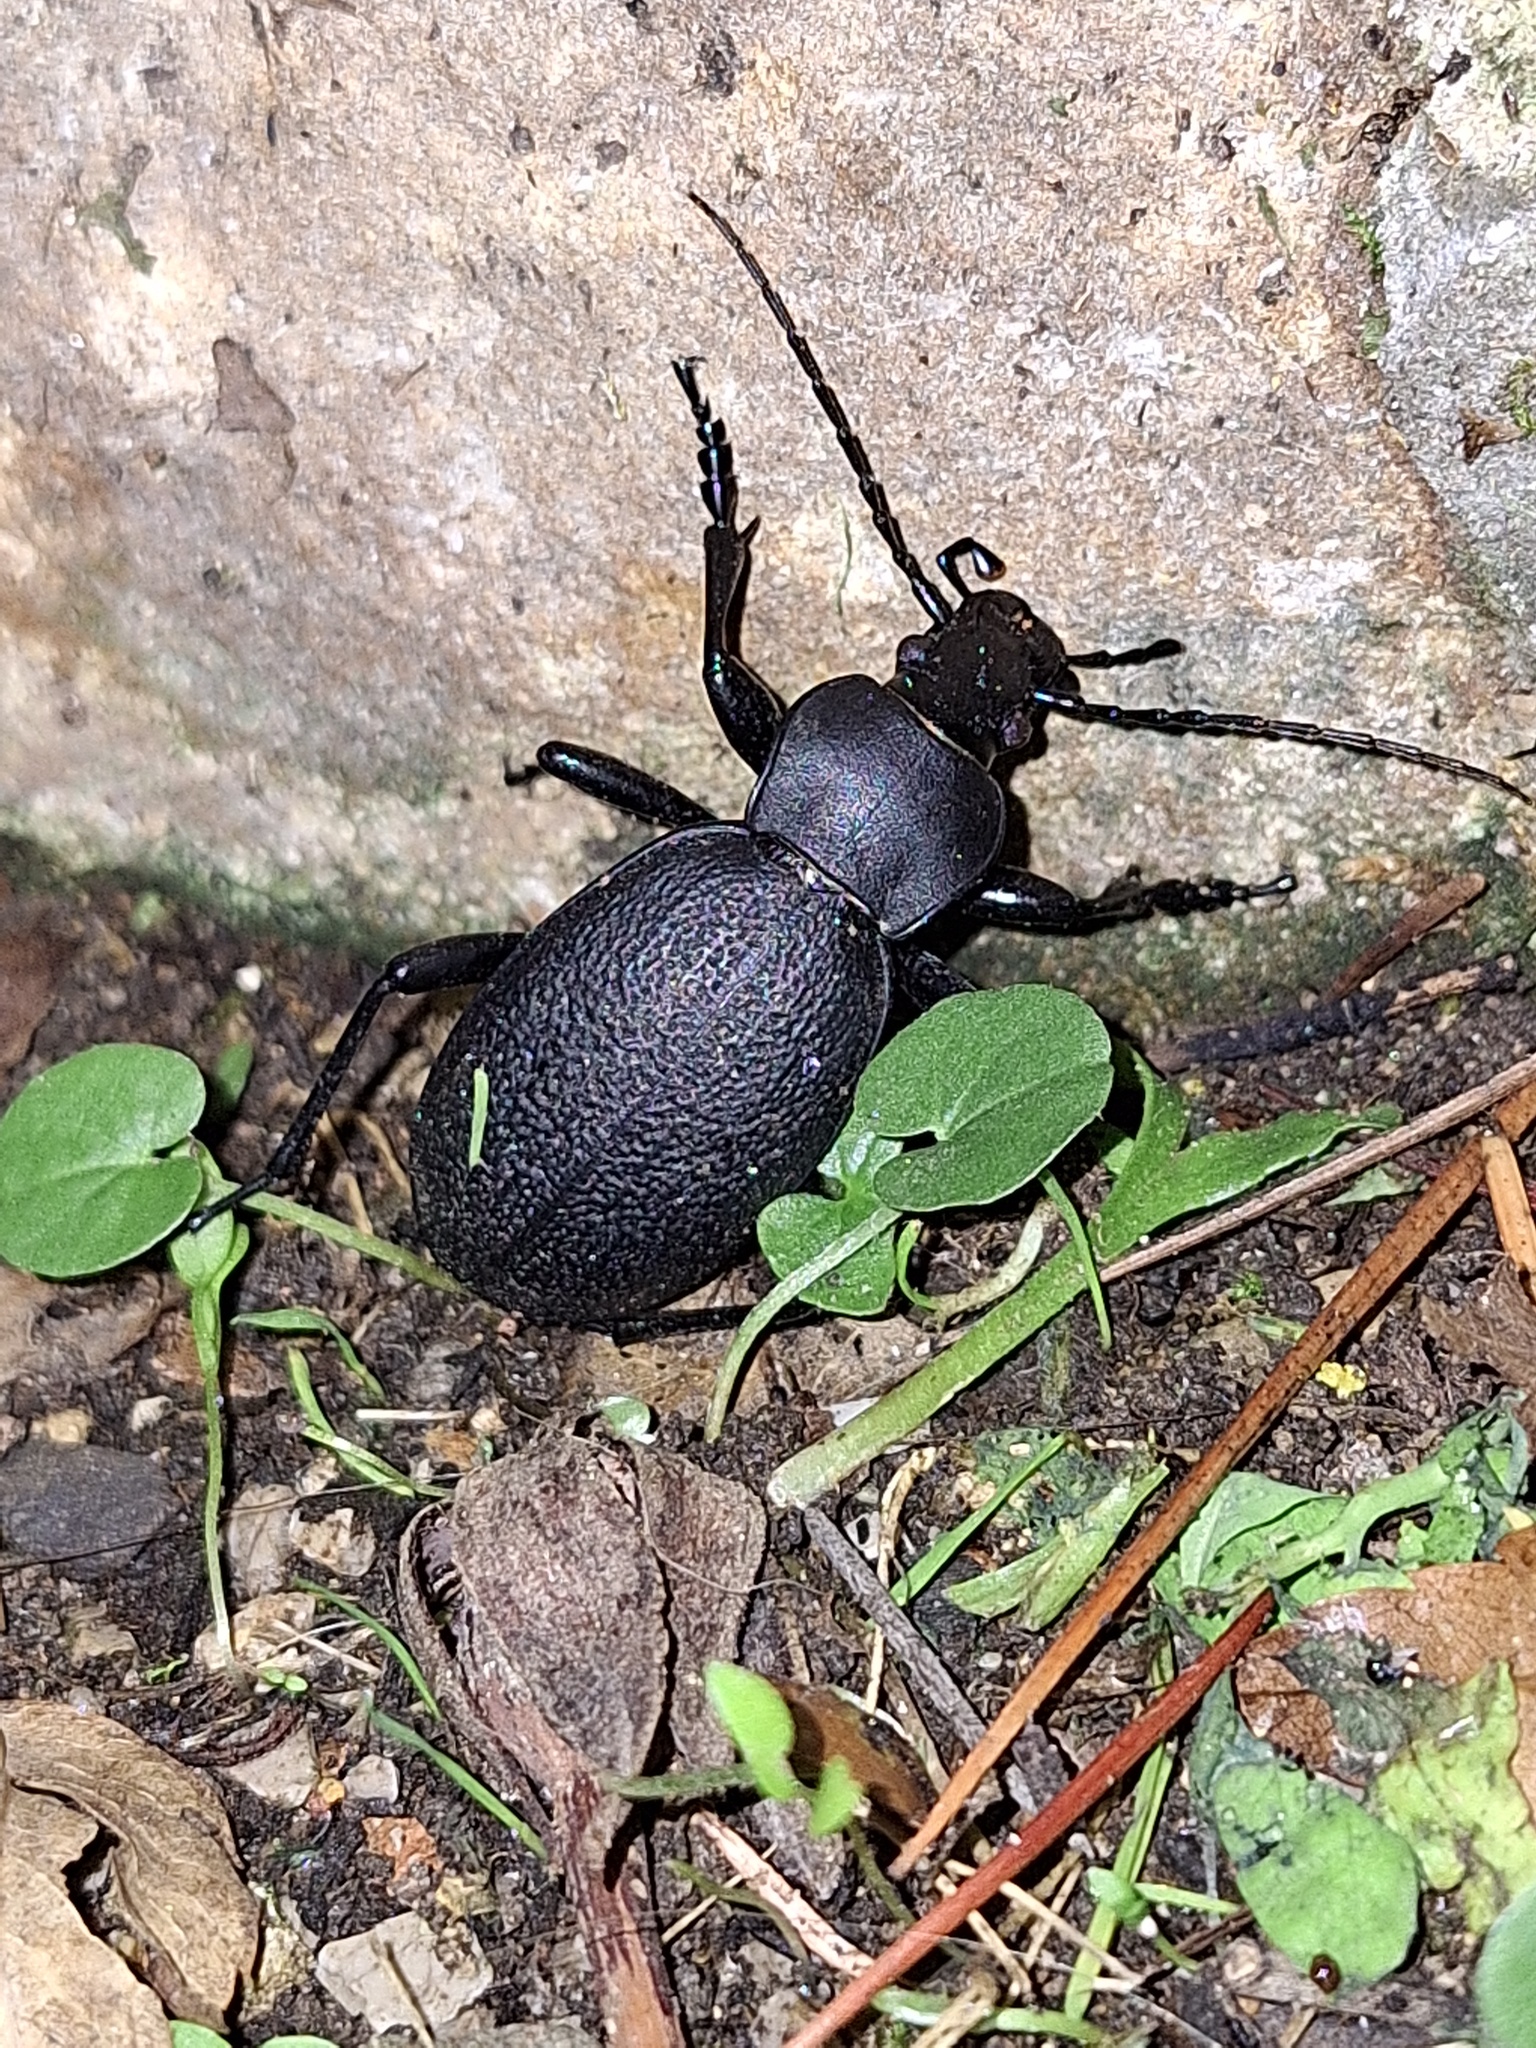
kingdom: Animalia
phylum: Arthropoda
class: Insecta
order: Coleoptera
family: Carabidae
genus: Carabus
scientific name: Carabus coriaceus
